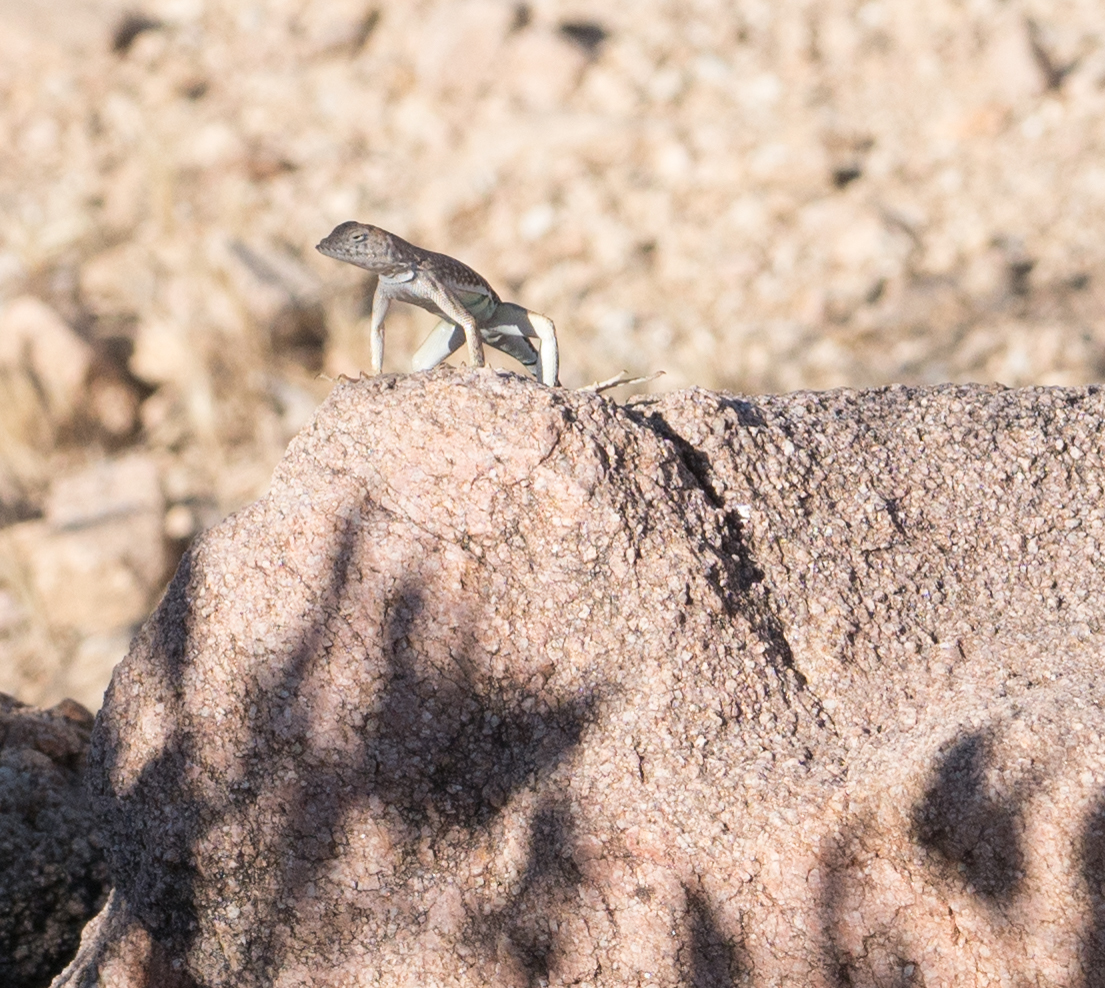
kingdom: Animalia
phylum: Chordata
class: Squamata
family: Phrynosomatidae
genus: Cophosaurus
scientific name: Cophosaurus texanus
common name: Greater earless lizard
